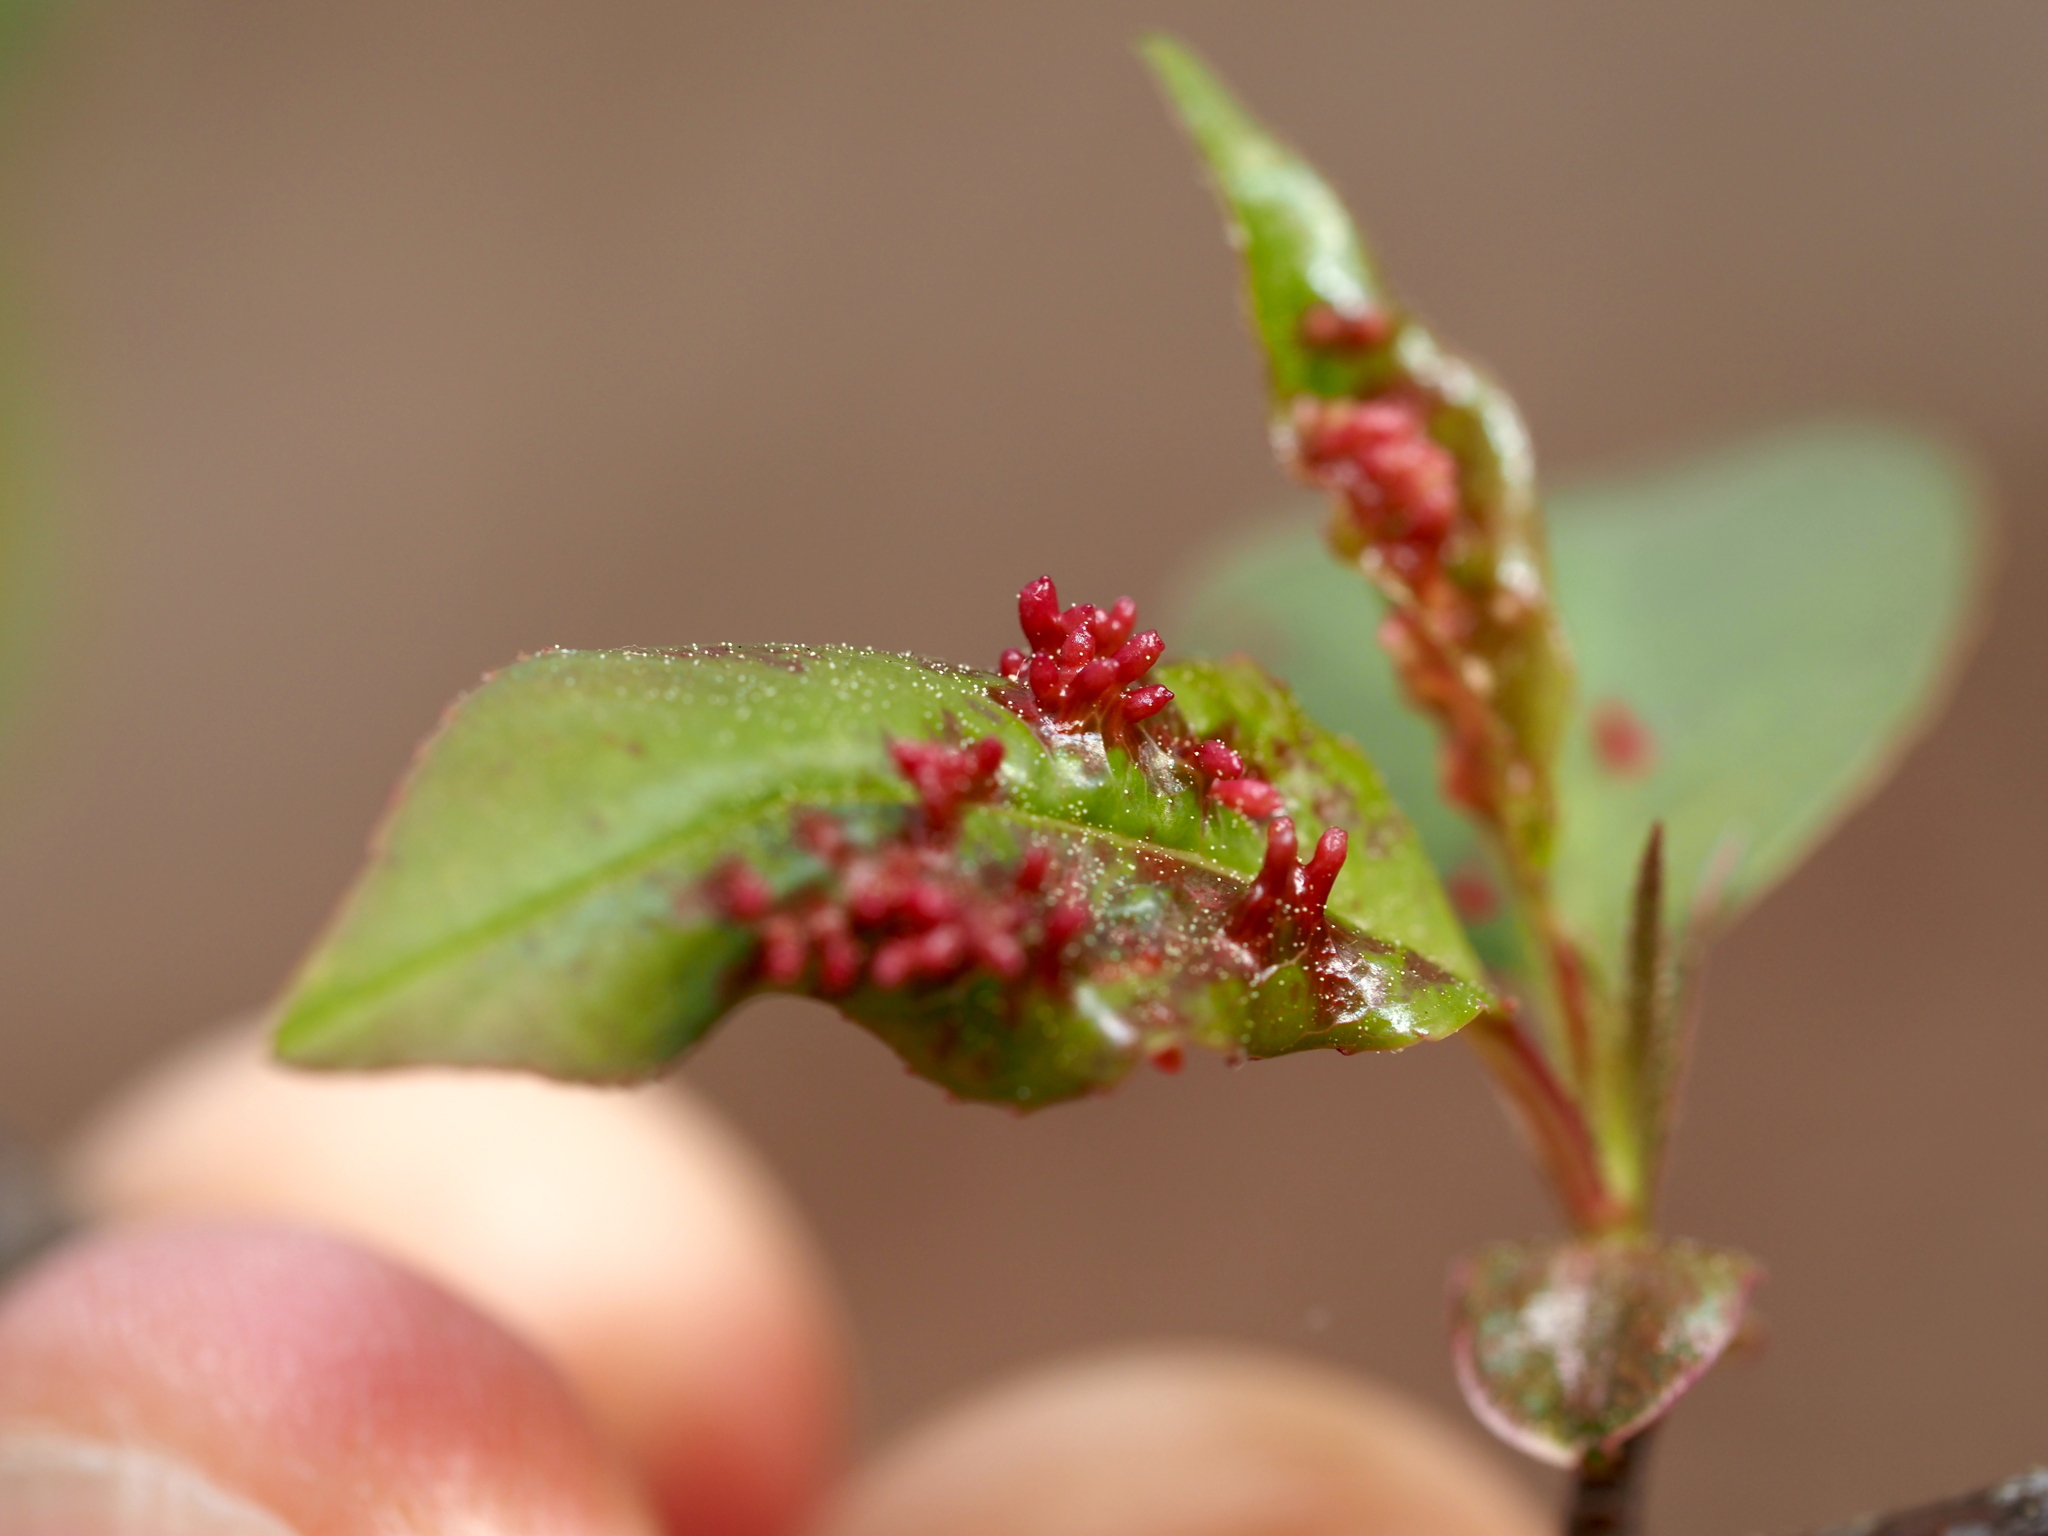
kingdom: Animalia
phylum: Arthropoda
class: Arachnida
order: Trombidiformes
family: Eriophyidae
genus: Eriophyes
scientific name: Eriophyes
